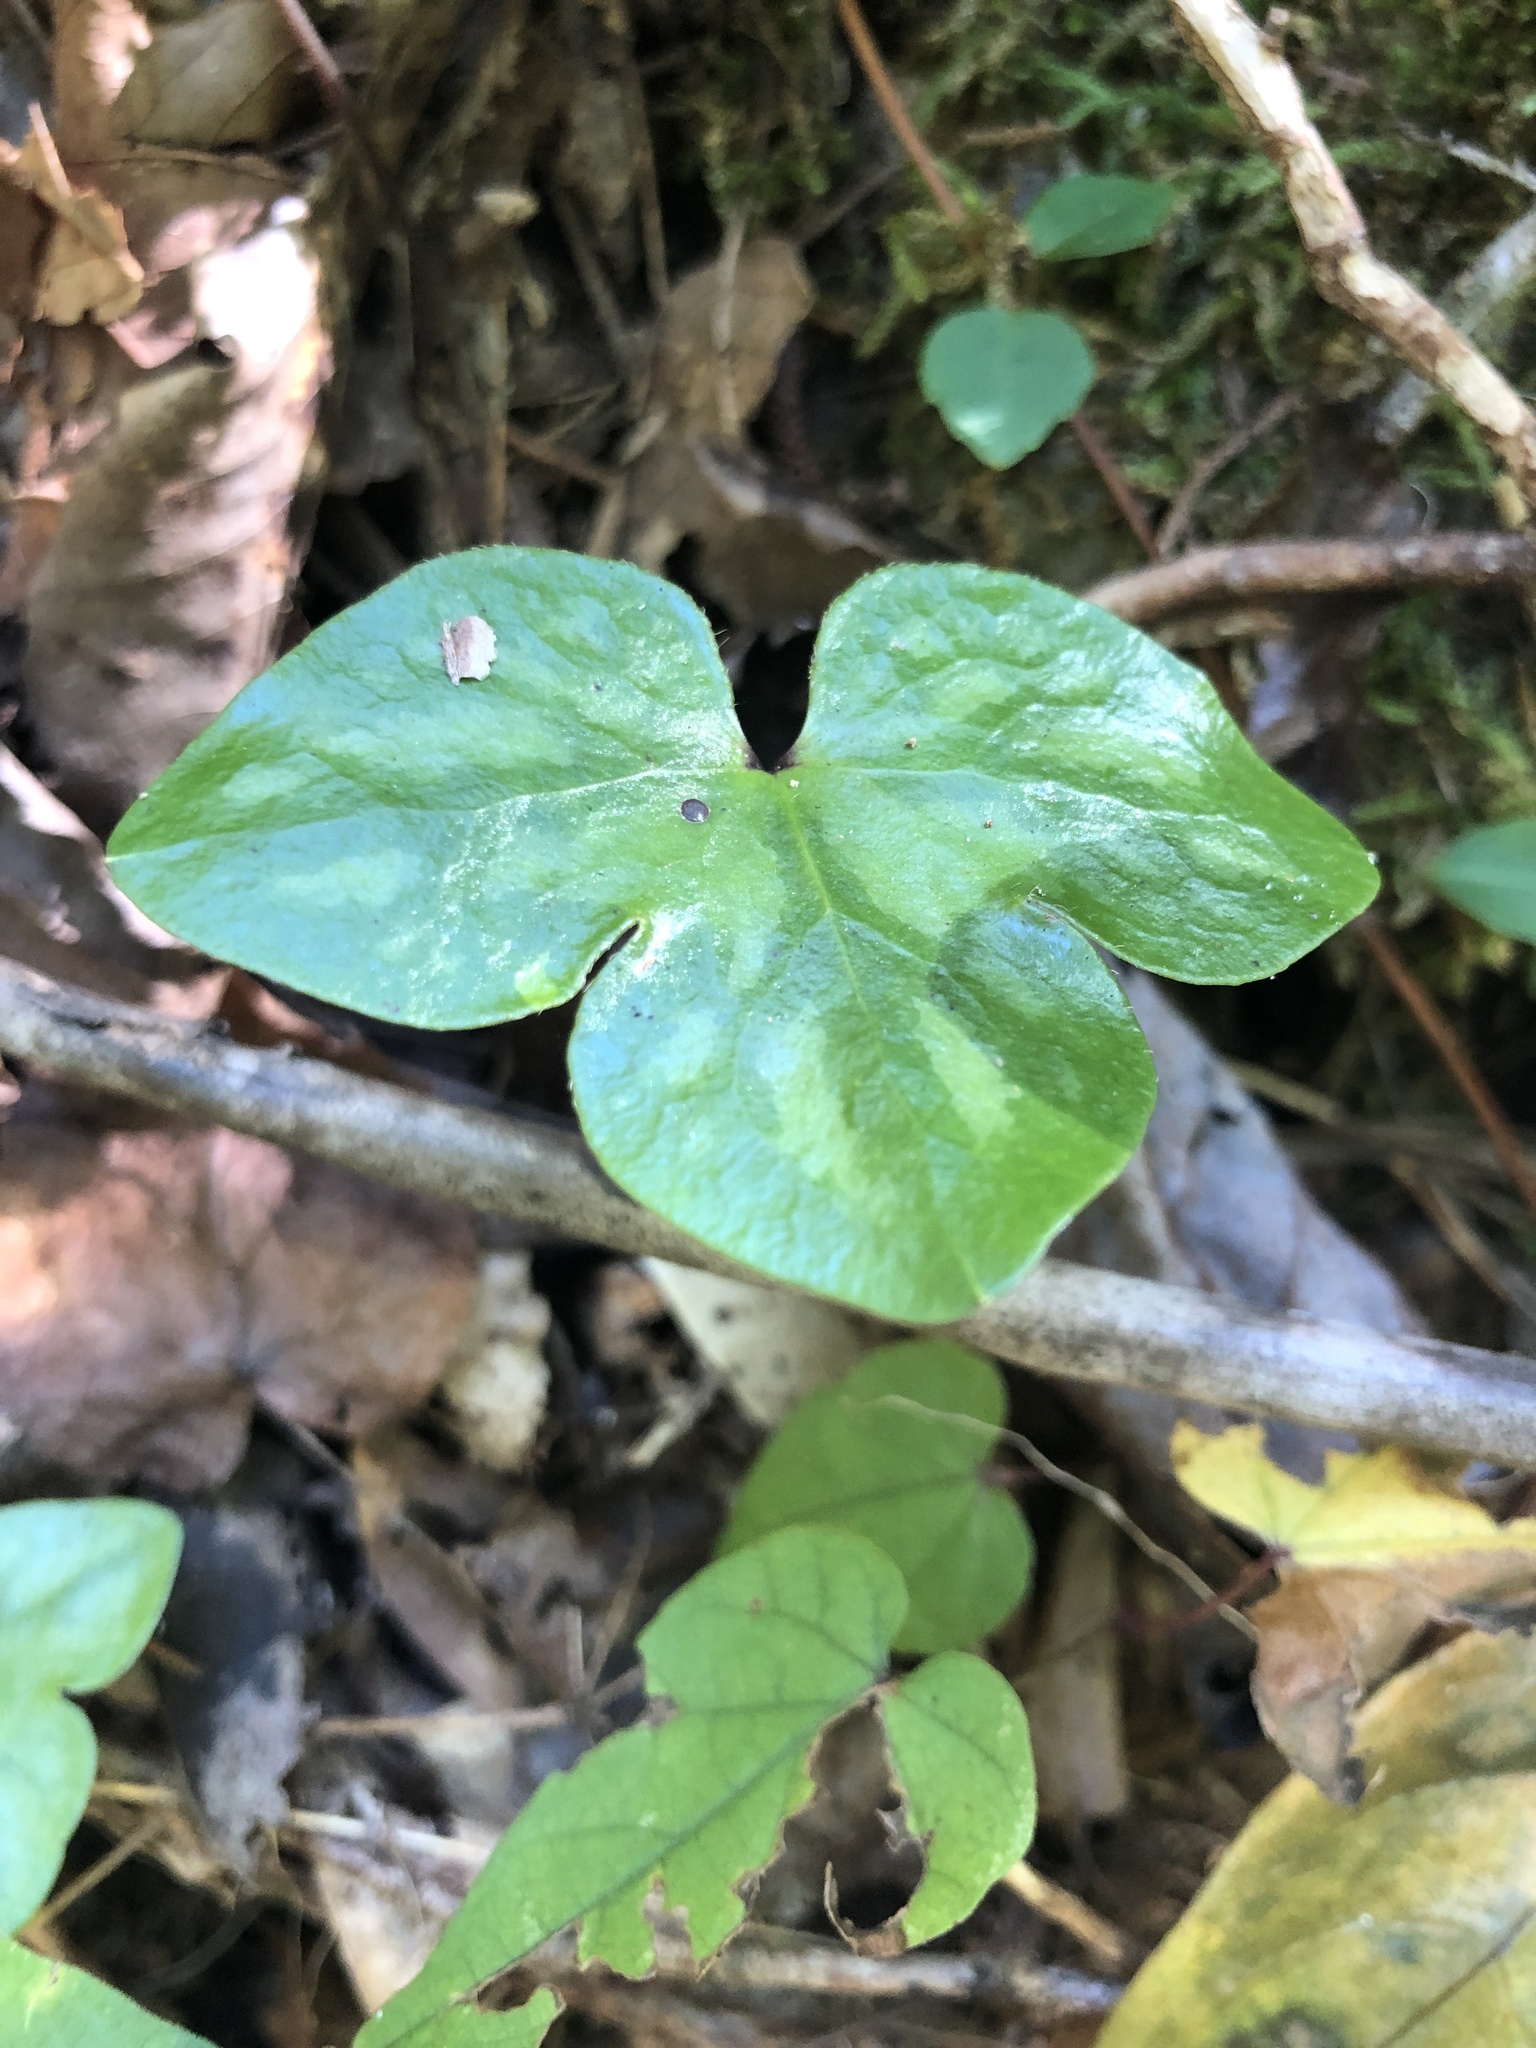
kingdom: Plantae
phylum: Tracheophyta
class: Magnoliopsida
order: Ranunculales
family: Ranunculaceae
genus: Hepatica
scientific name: Hepatica acutiloba
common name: Sharp-lobed hepatica
